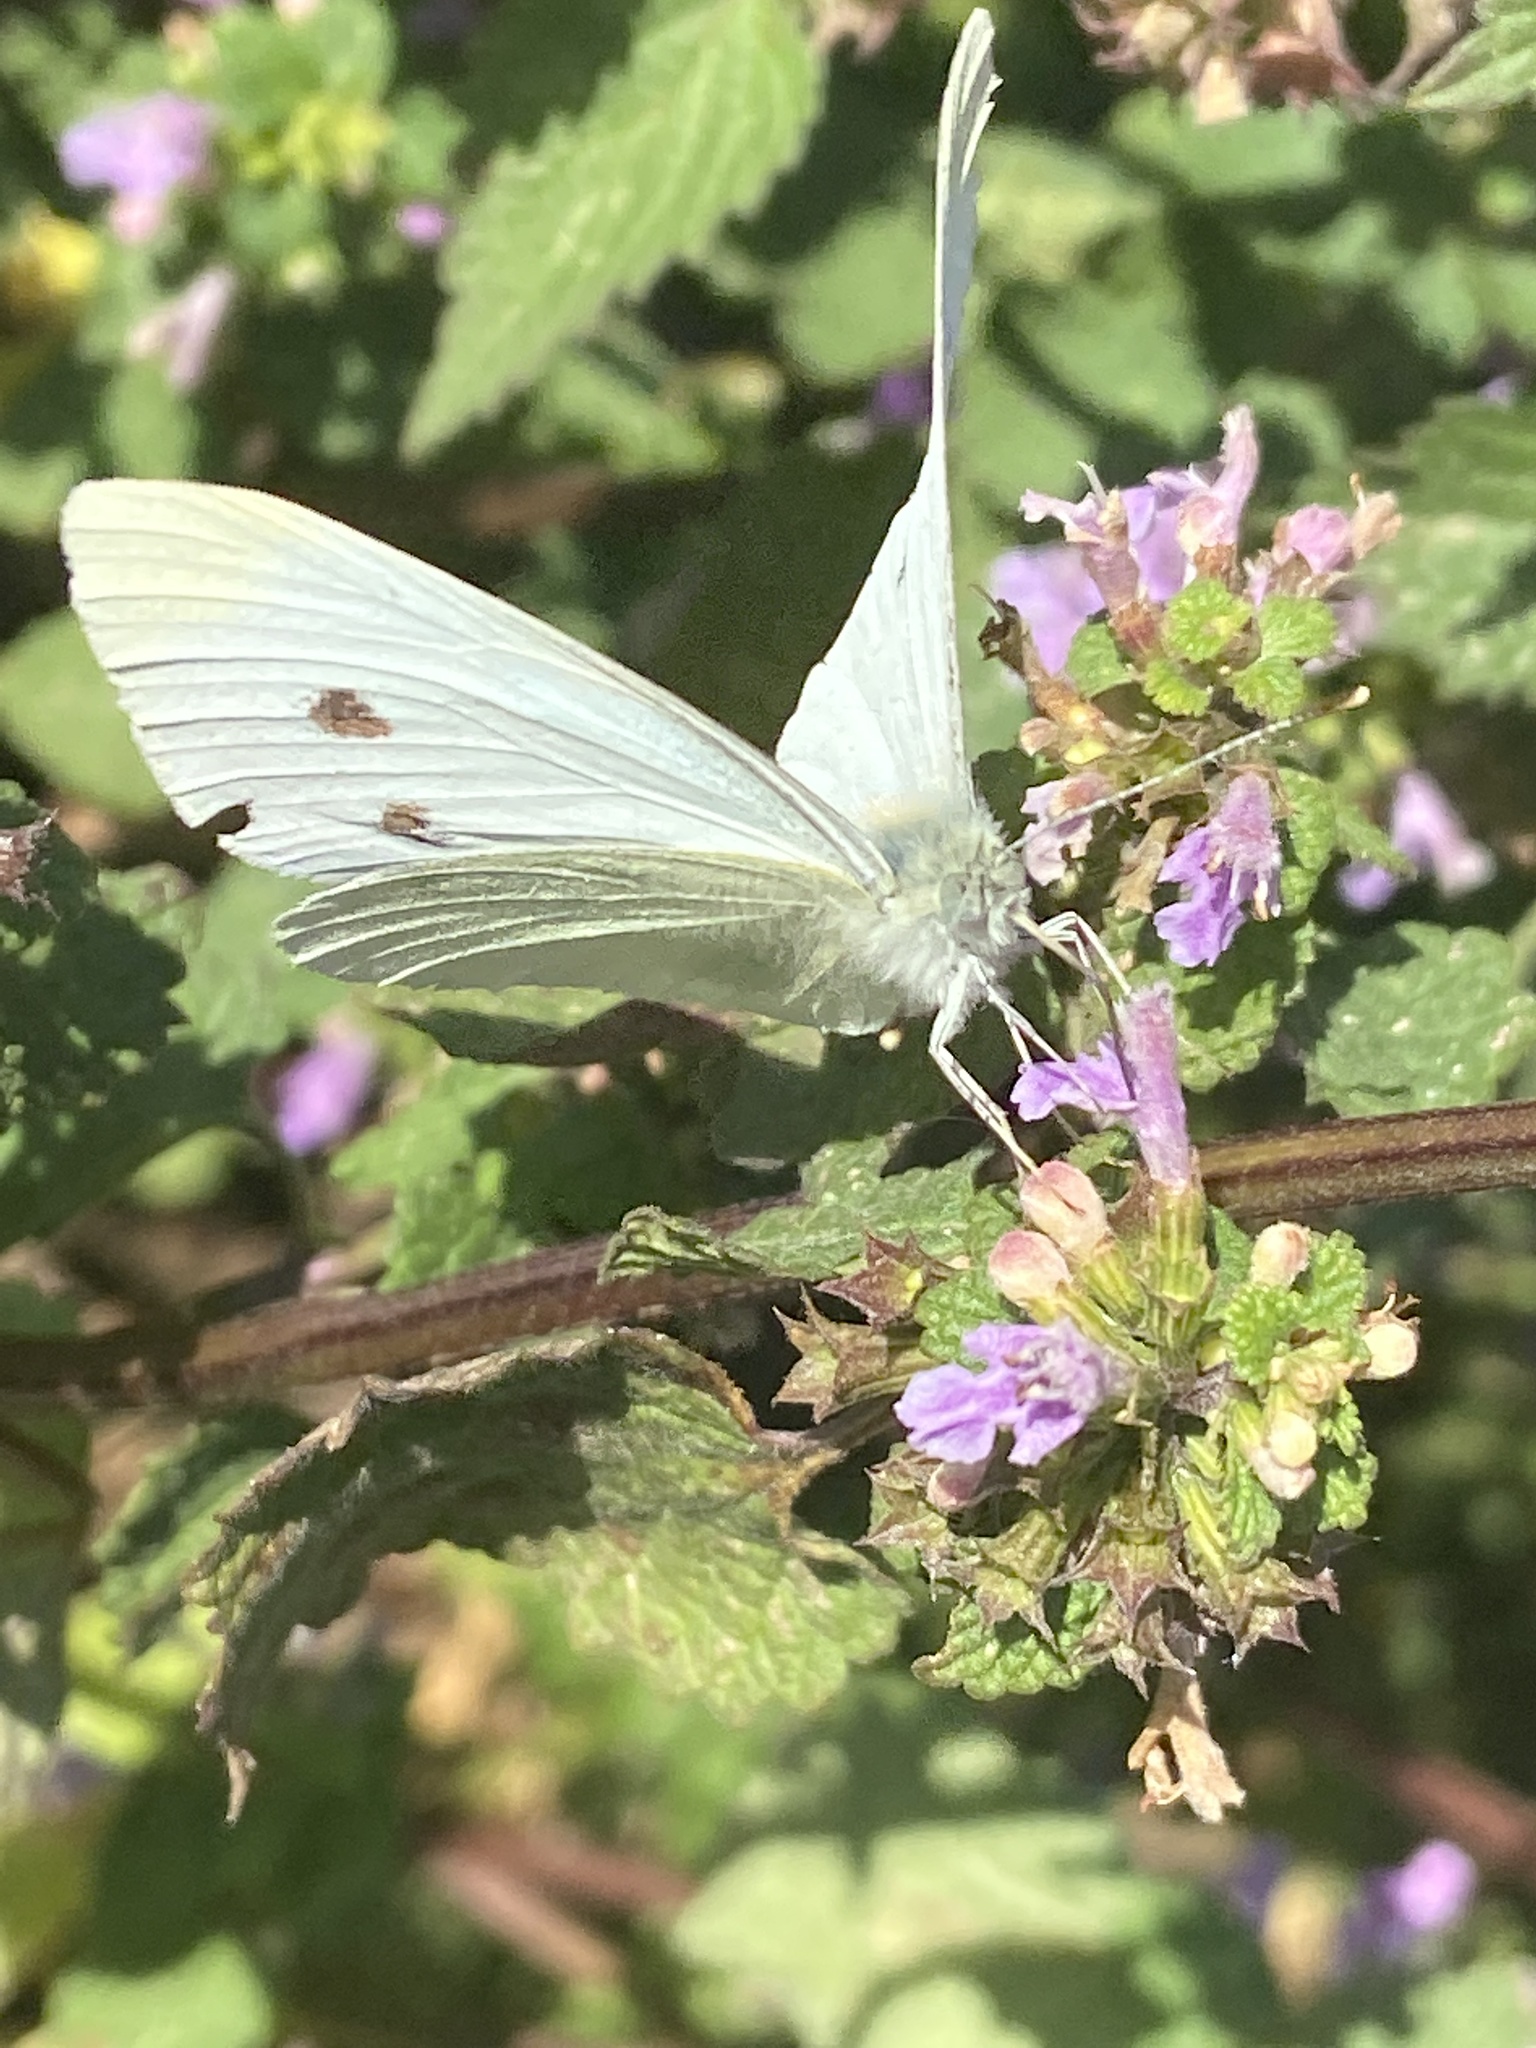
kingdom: Animalia
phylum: Arthropoda
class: Insecta
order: Lepidoptera
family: Pieridae
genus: Pieris
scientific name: Pieris rapae
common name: Small white
